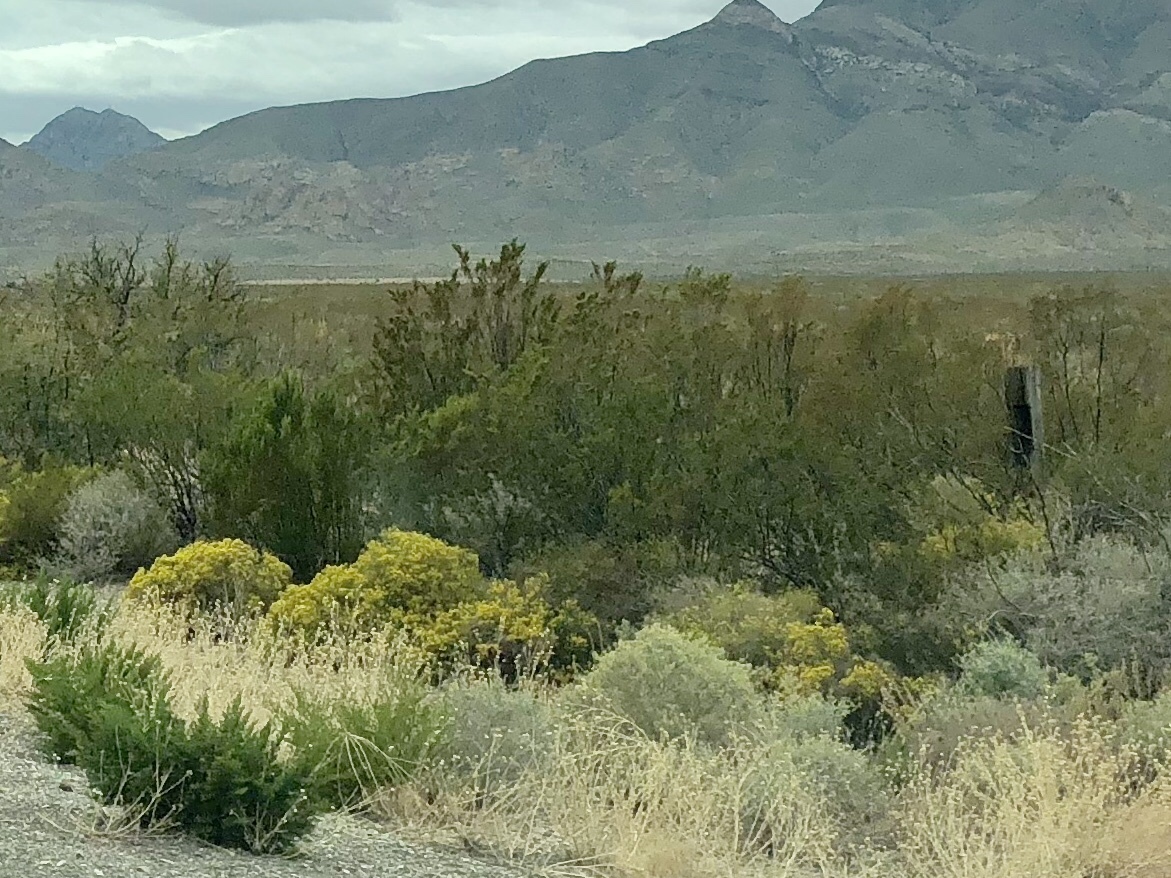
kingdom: Plantae
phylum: Tracheophyta
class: Magnoliopsida
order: Zygophyllales
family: Zygophyllaceae
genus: Larrea
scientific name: Larrea tridentata
